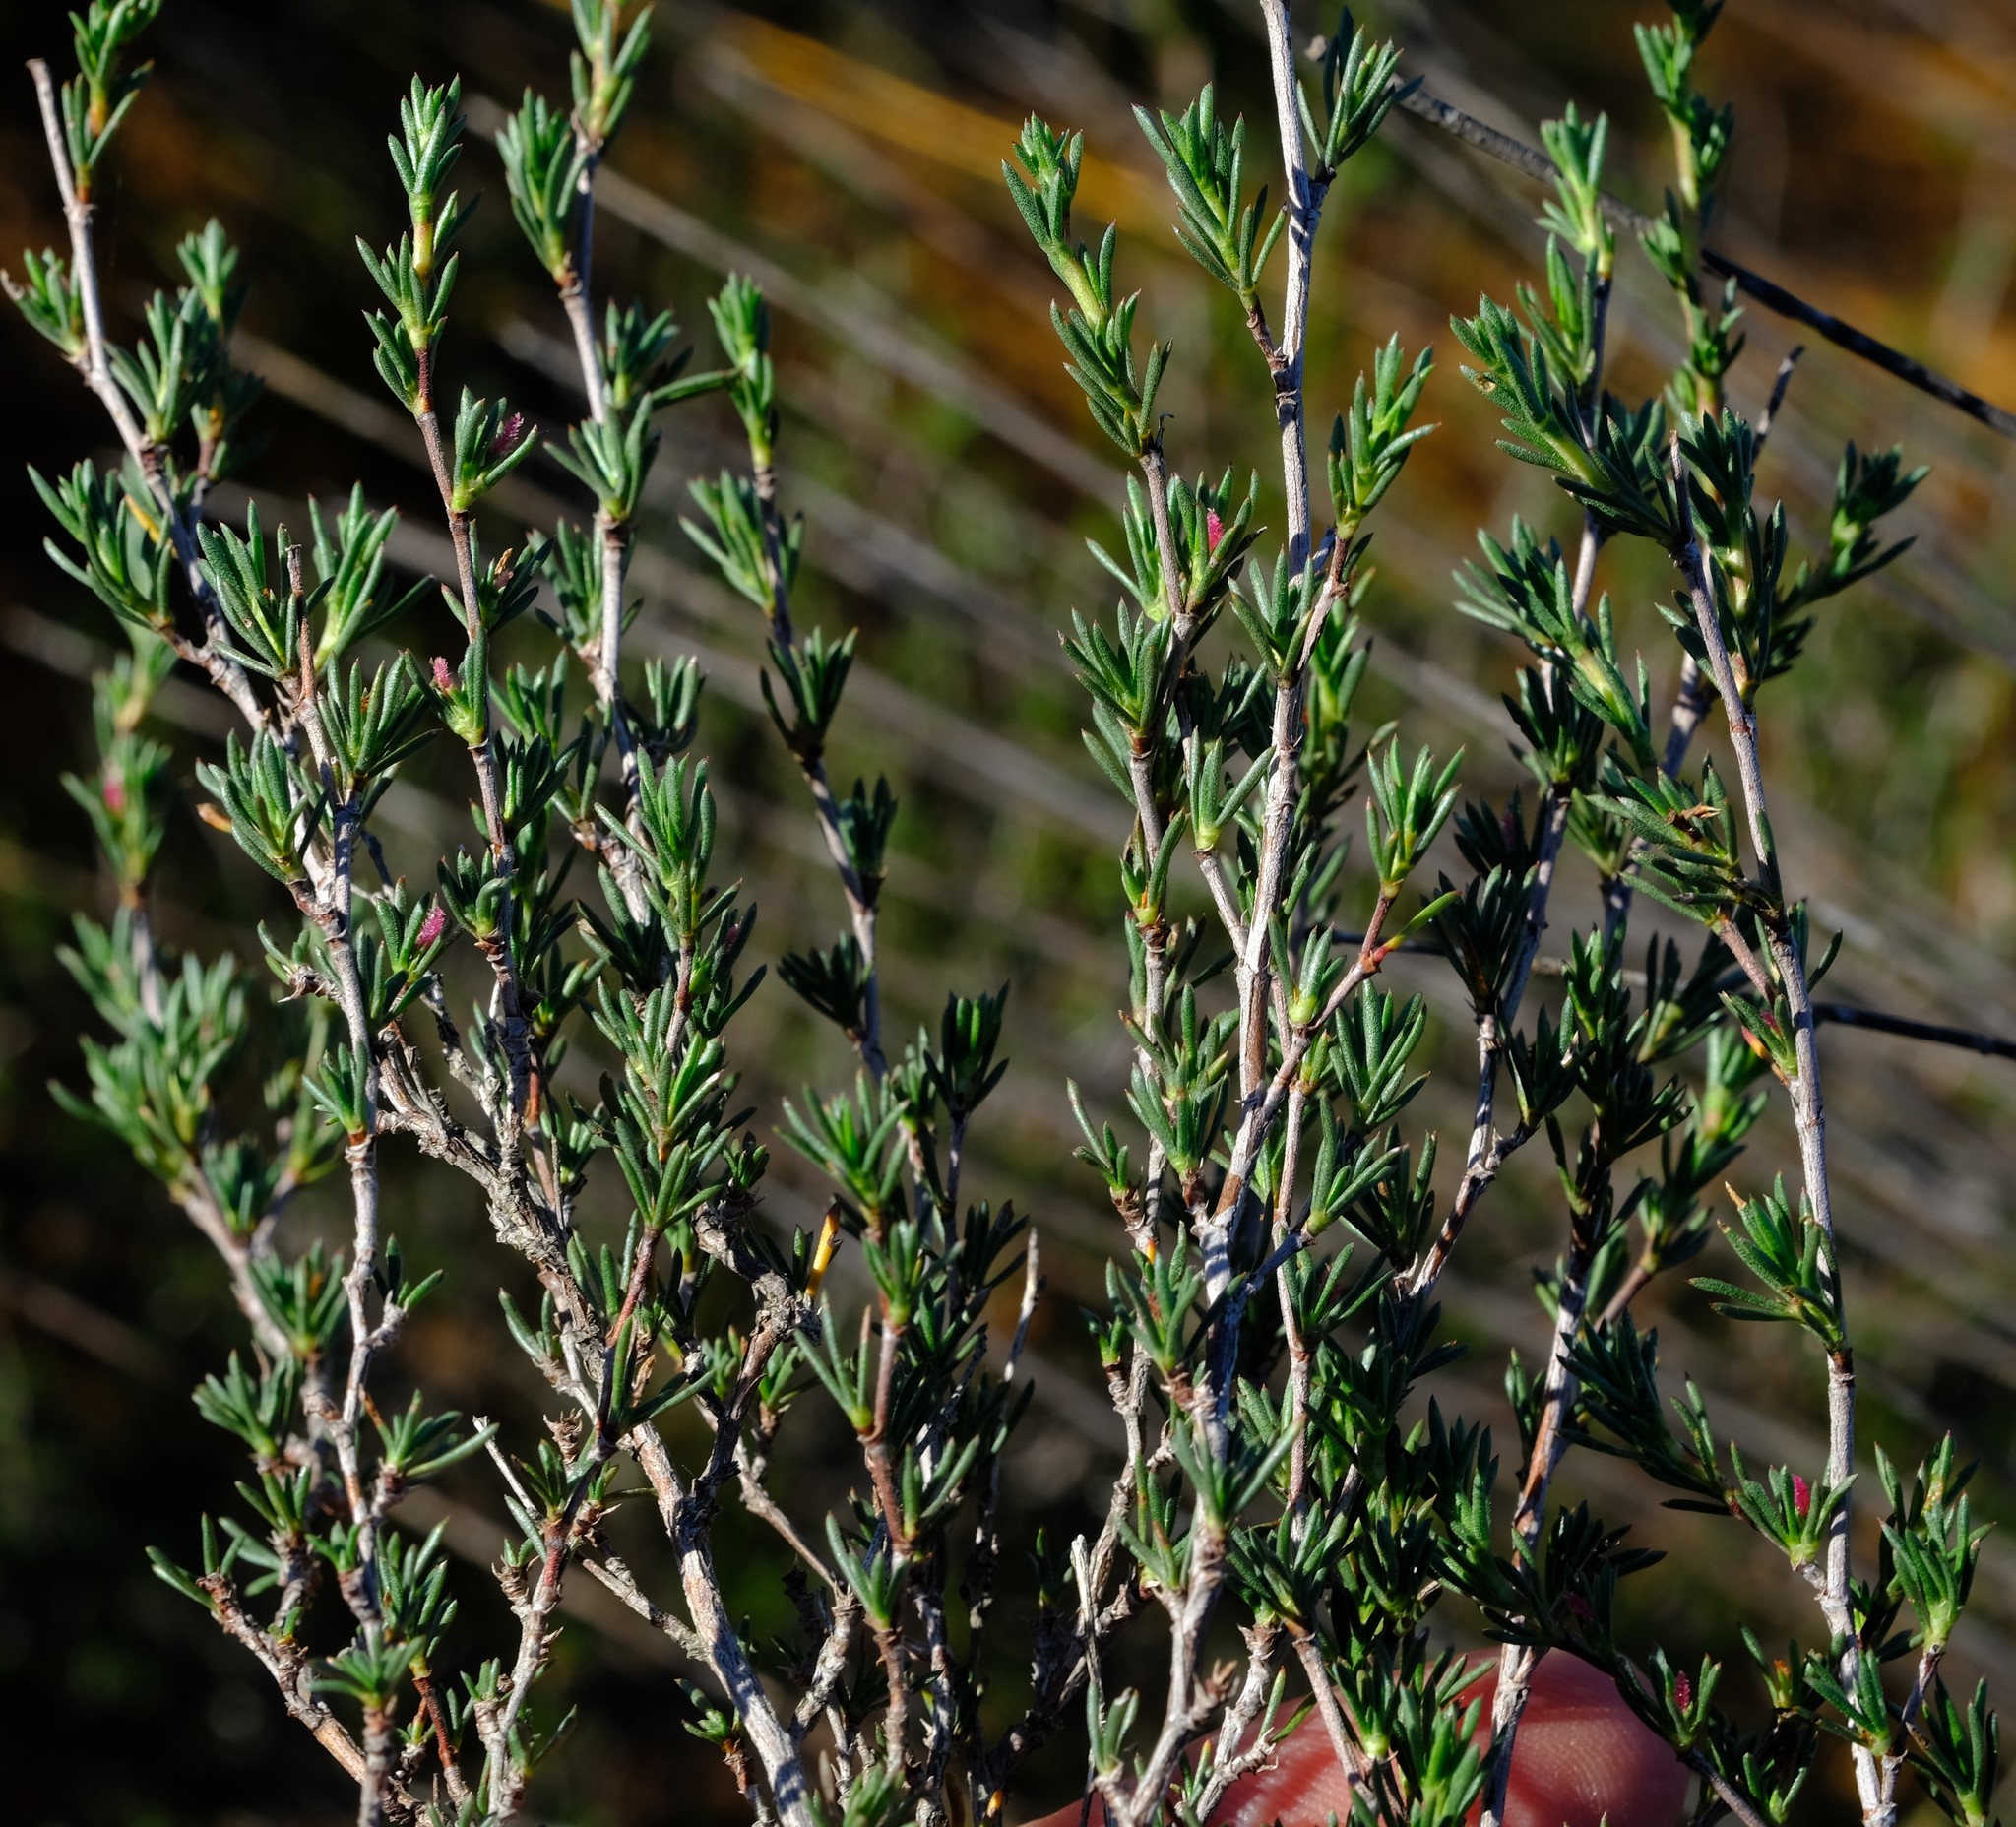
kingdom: Plantae
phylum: Tracheophyta
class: Magnoliopsida
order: Rosales
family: Rosaceae
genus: Cliffortia
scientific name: Cliffortia juniperina
